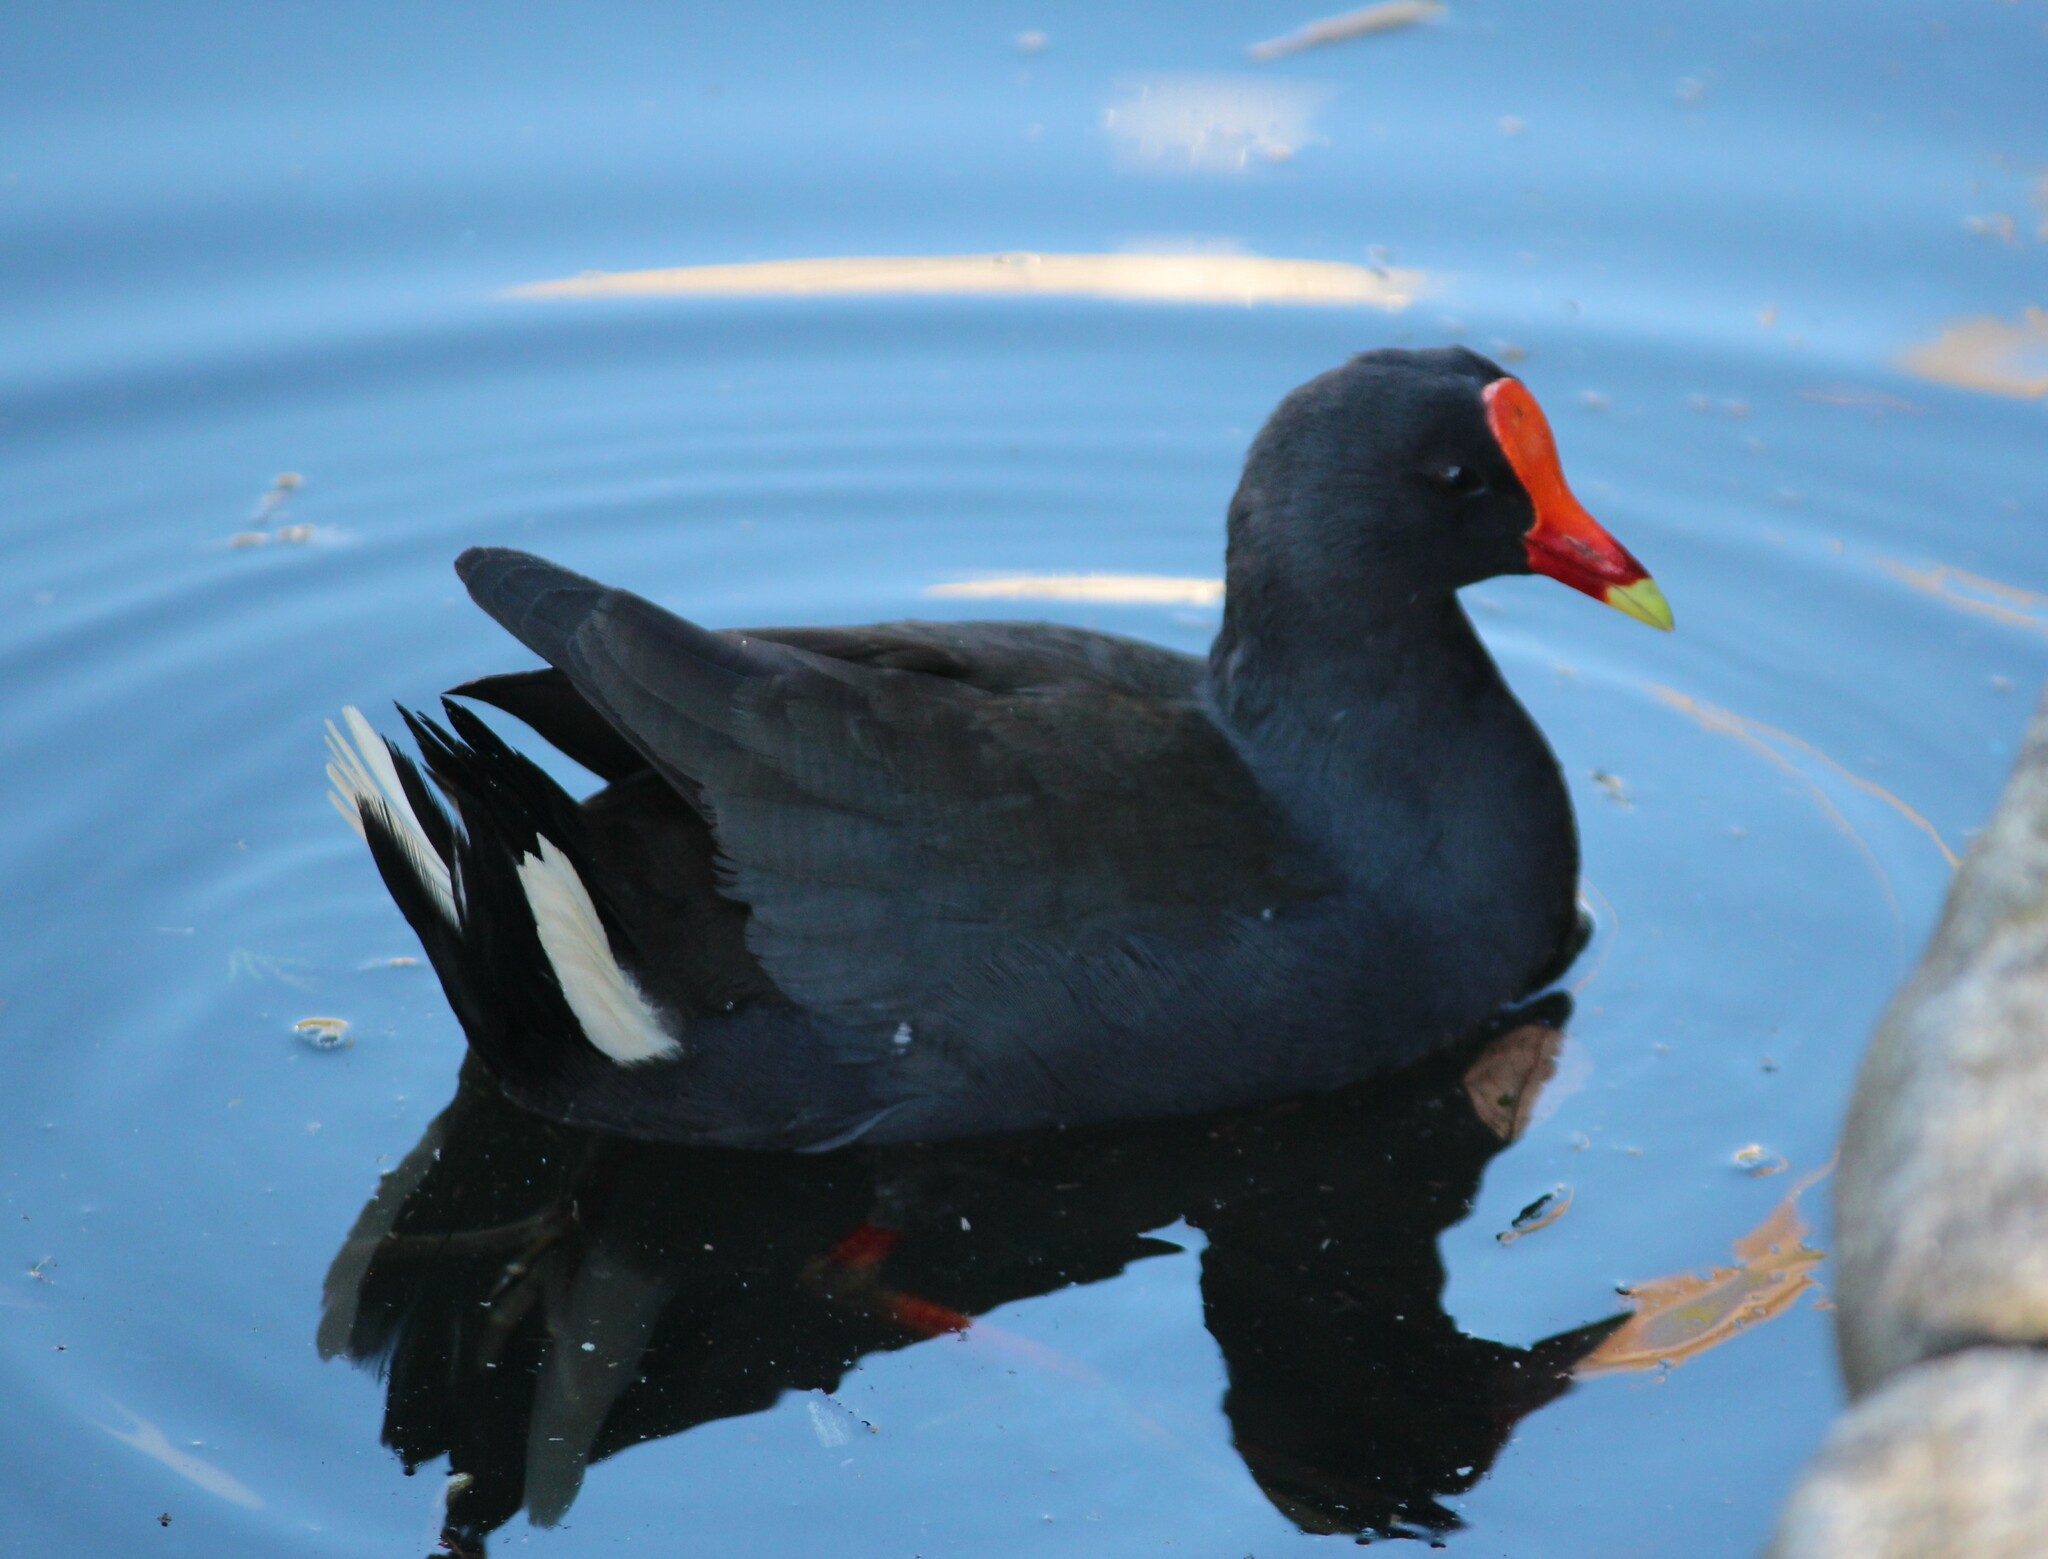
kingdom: Animalia
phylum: Chordata
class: Aves
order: Gruiformes
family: Rallidae
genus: Gallinula
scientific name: Gallinula tenebrosa
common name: Dusky moorhen
